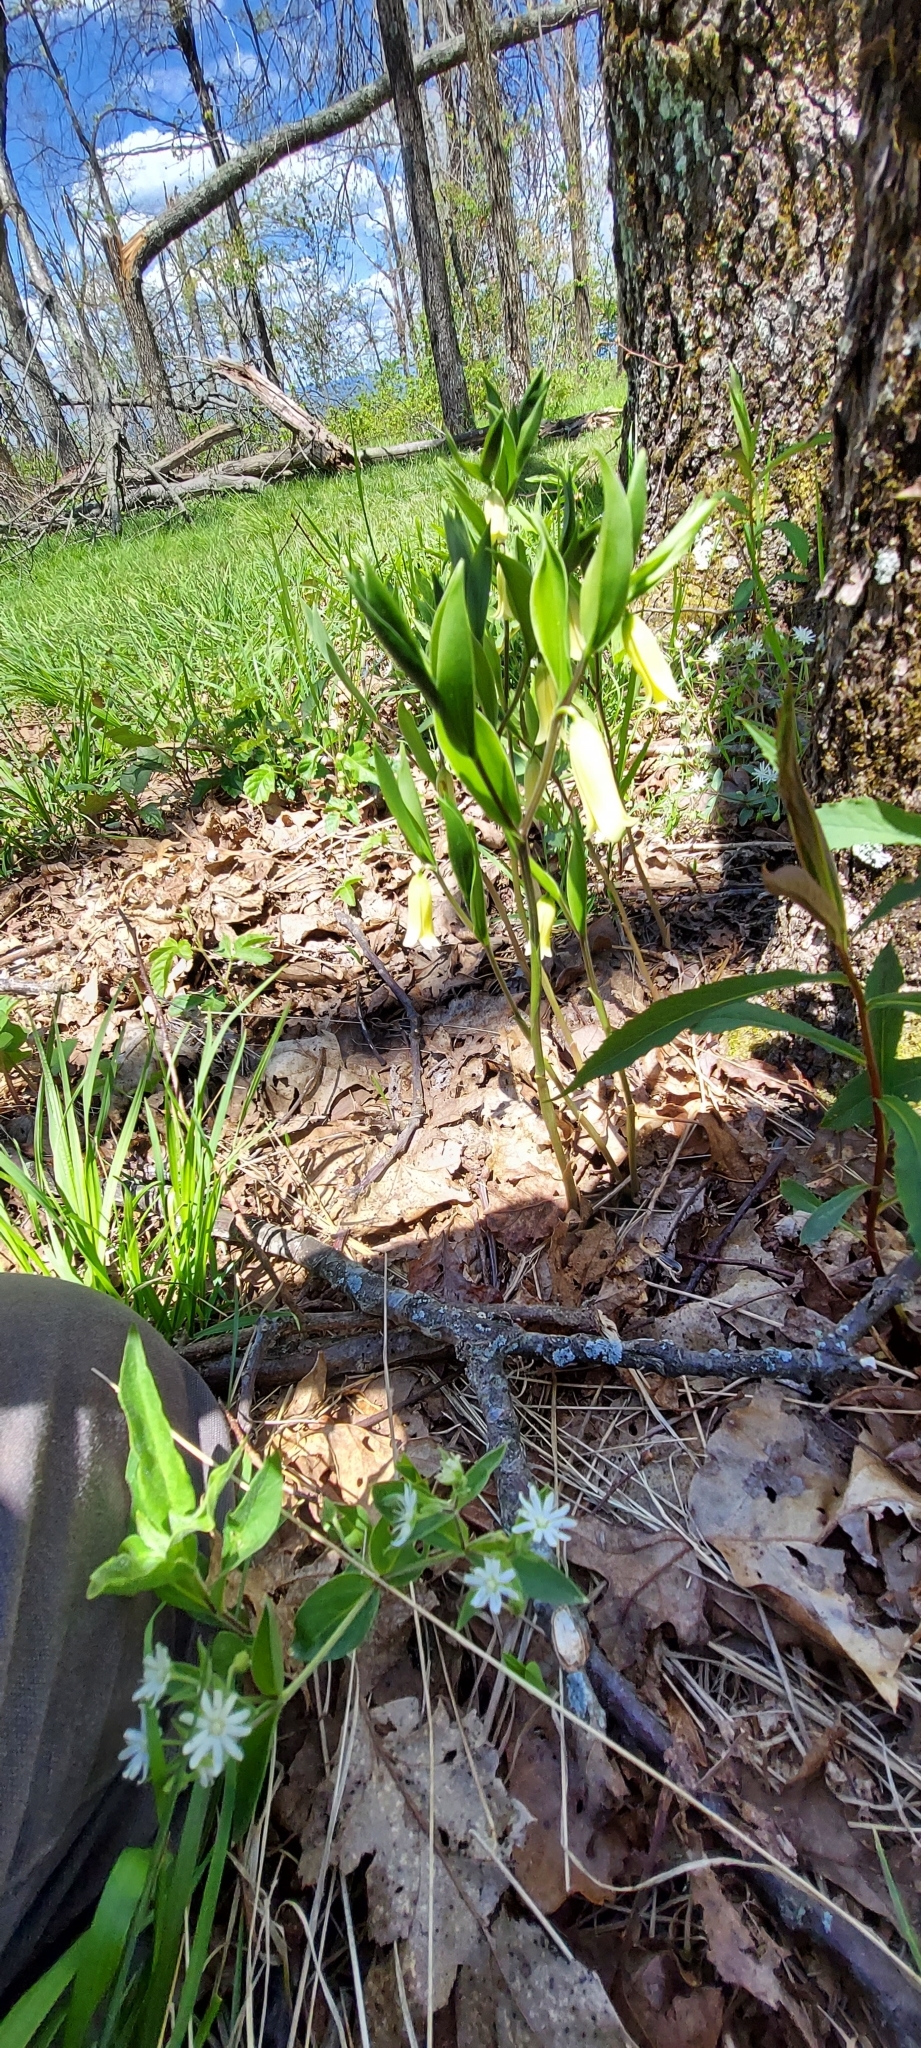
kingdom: Plantae
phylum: Tracheophyta
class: Liliopsida
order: Liliales
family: Colchicaceae
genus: Uvularia
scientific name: Uvularia puberula
